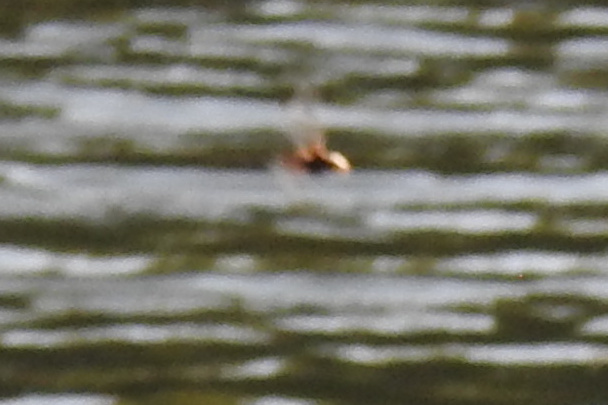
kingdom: Animalia
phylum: Arthropoda
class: Insecta
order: Odonata
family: Corduliidae
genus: Epitheca
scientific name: Epitheca princeps
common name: Prince baskettail
